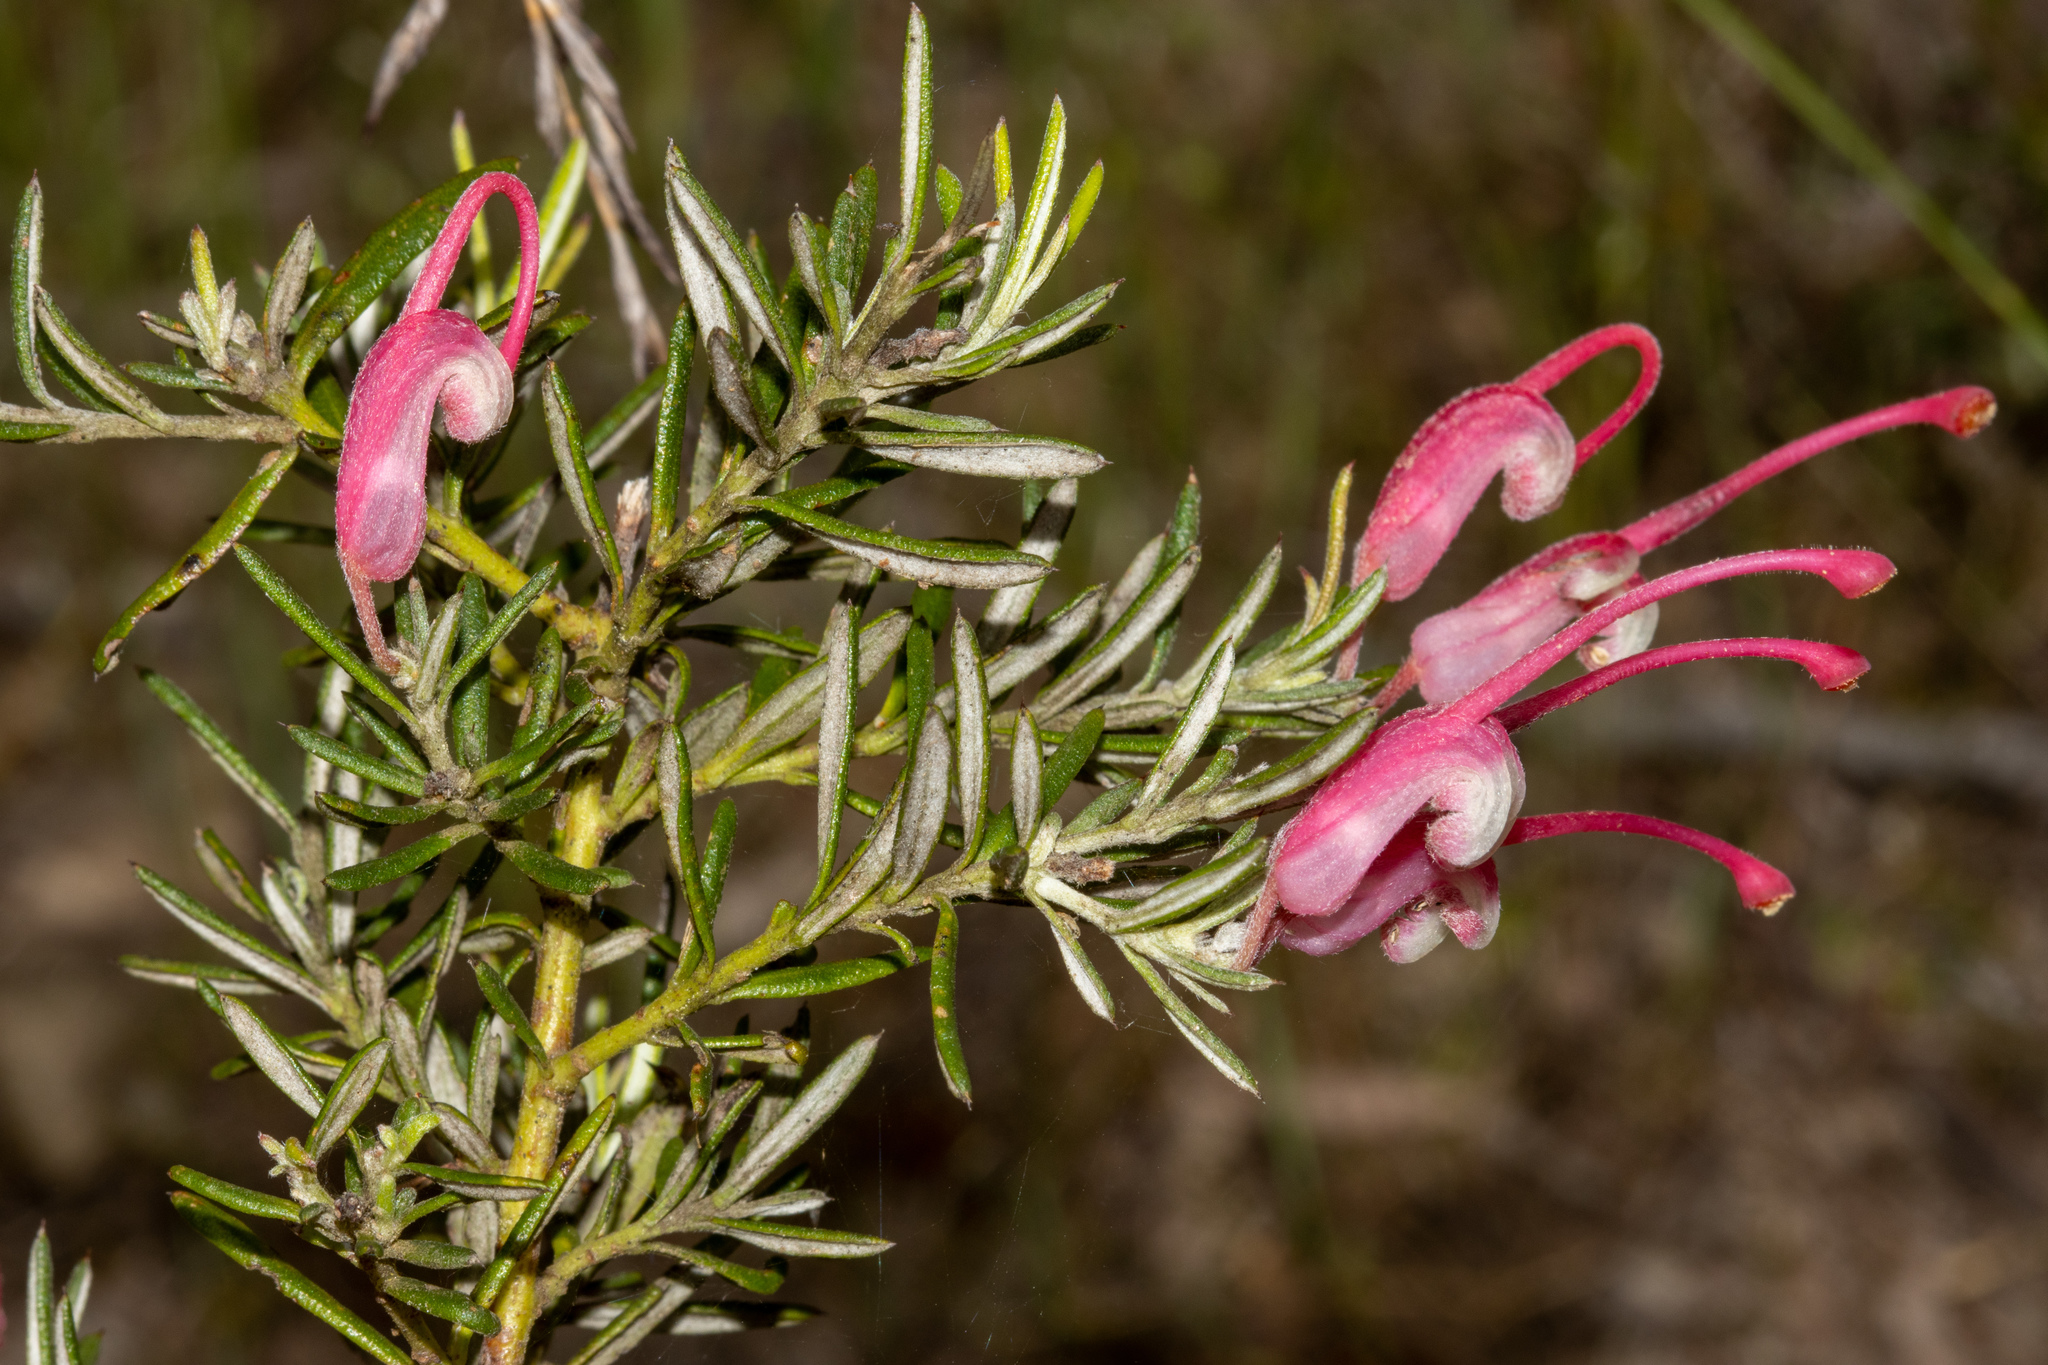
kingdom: Plantae
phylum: Tracheophyta
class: Magnoliopsida
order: Proteales
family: Proteaceae
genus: Grevillea
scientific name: Grevillea lavandulacea
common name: Lavender grevillea
